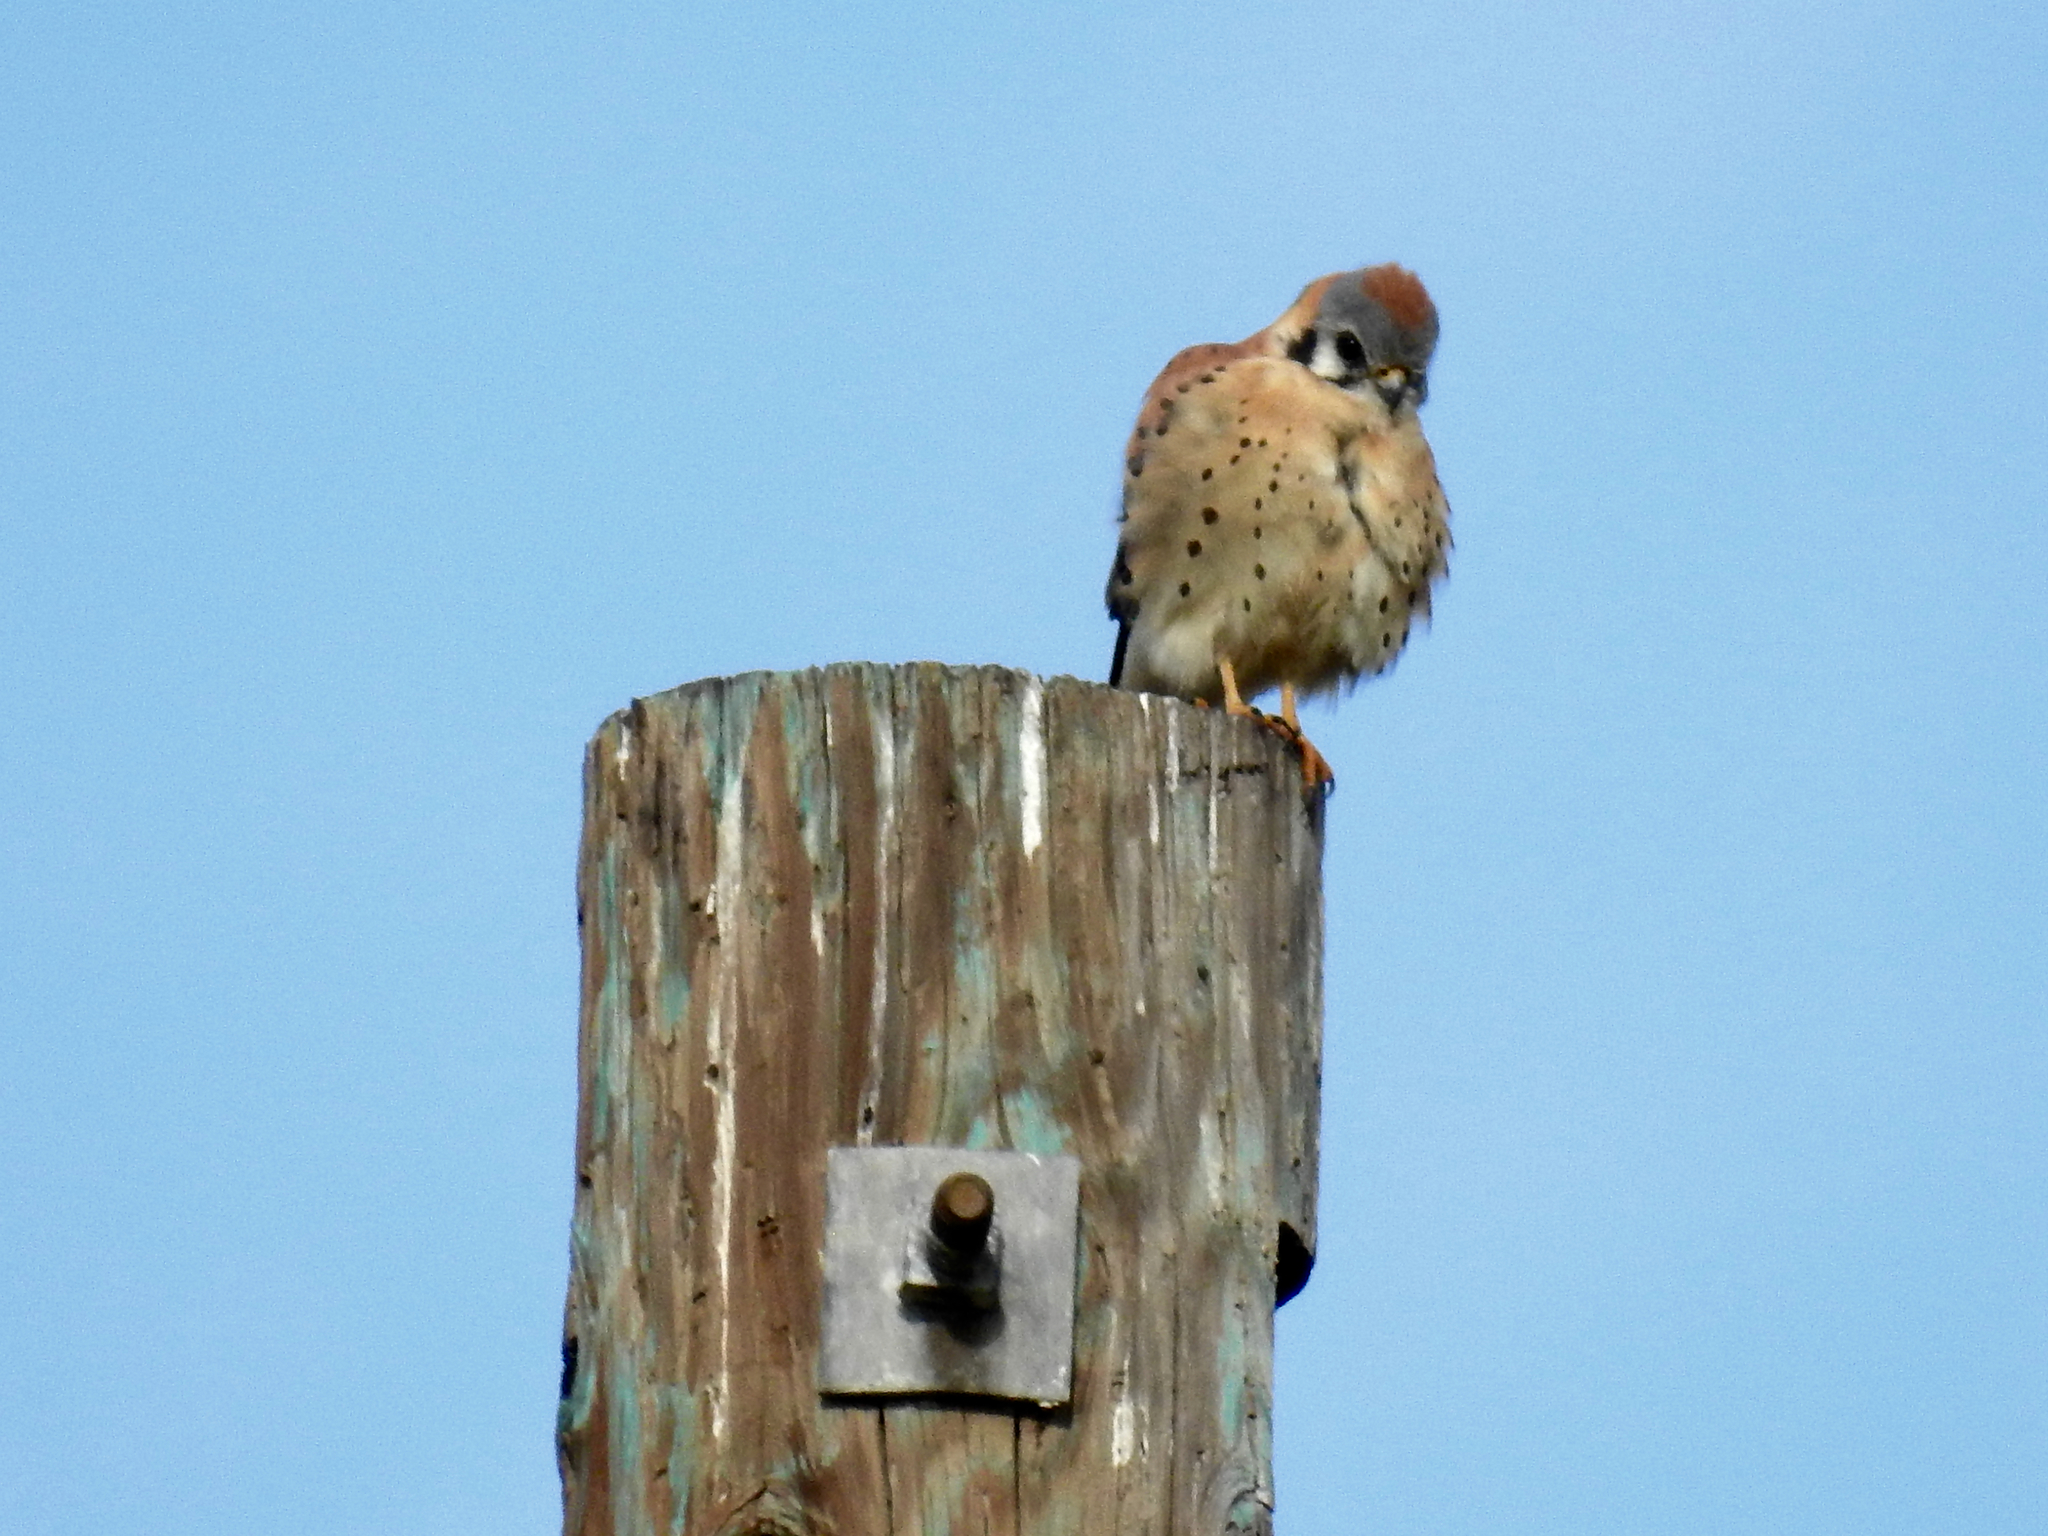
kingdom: Animalia
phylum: Chordata
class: Aves
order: Falconiformes
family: Falconidae
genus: Falco
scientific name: Falco sparverius
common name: American kestrel
